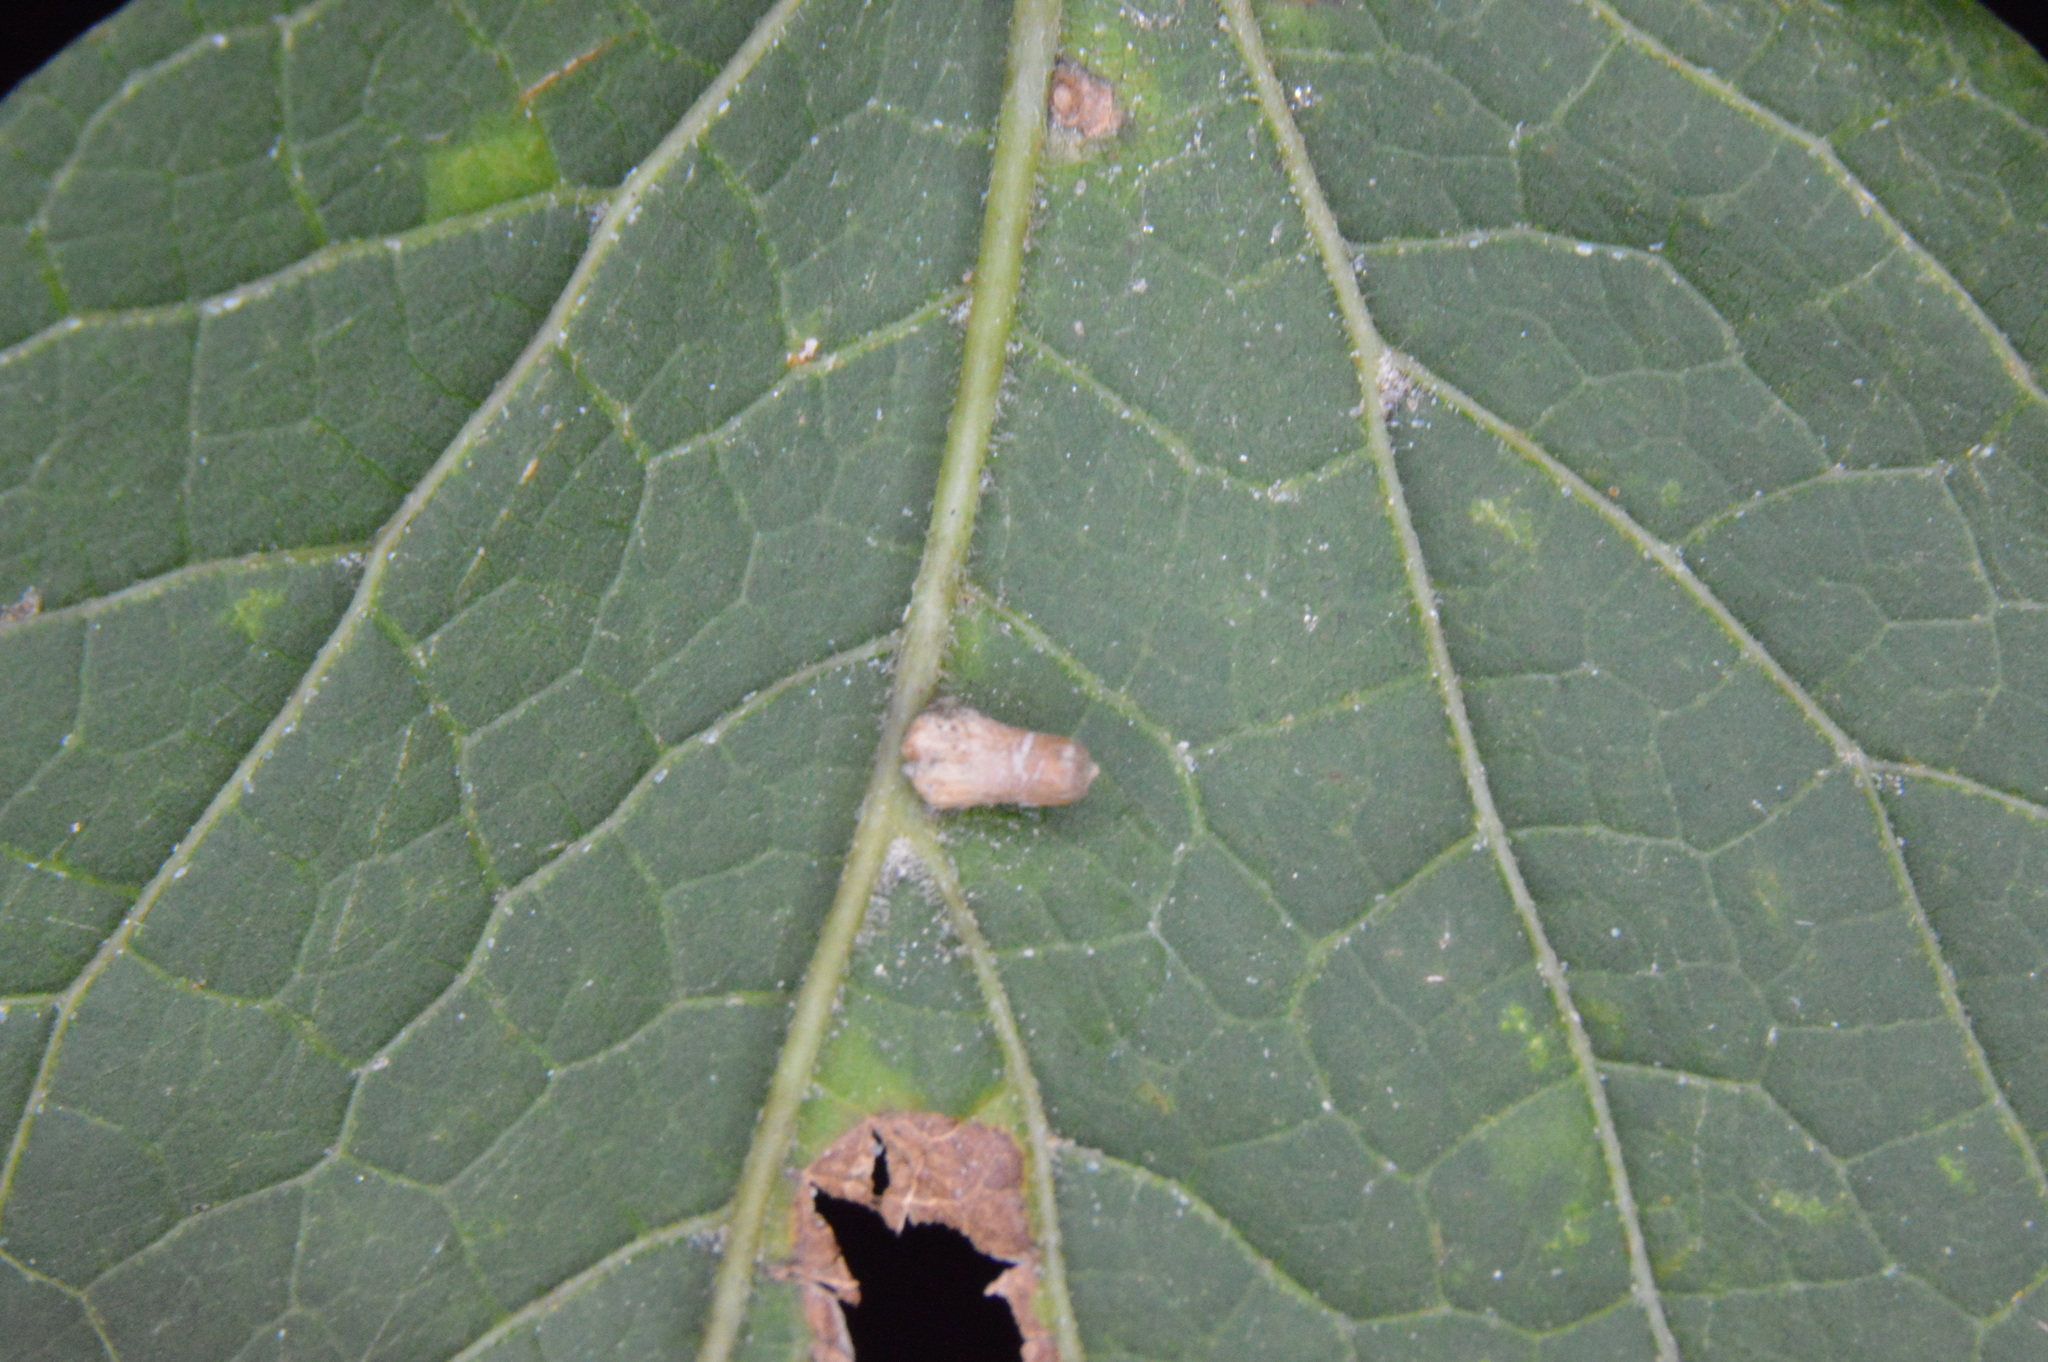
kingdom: Animalia
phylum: Arthropoda
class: Insecta
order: Diptera
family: Cecidomyiidae
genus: Celticecis
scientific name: Celticecis aciculata
